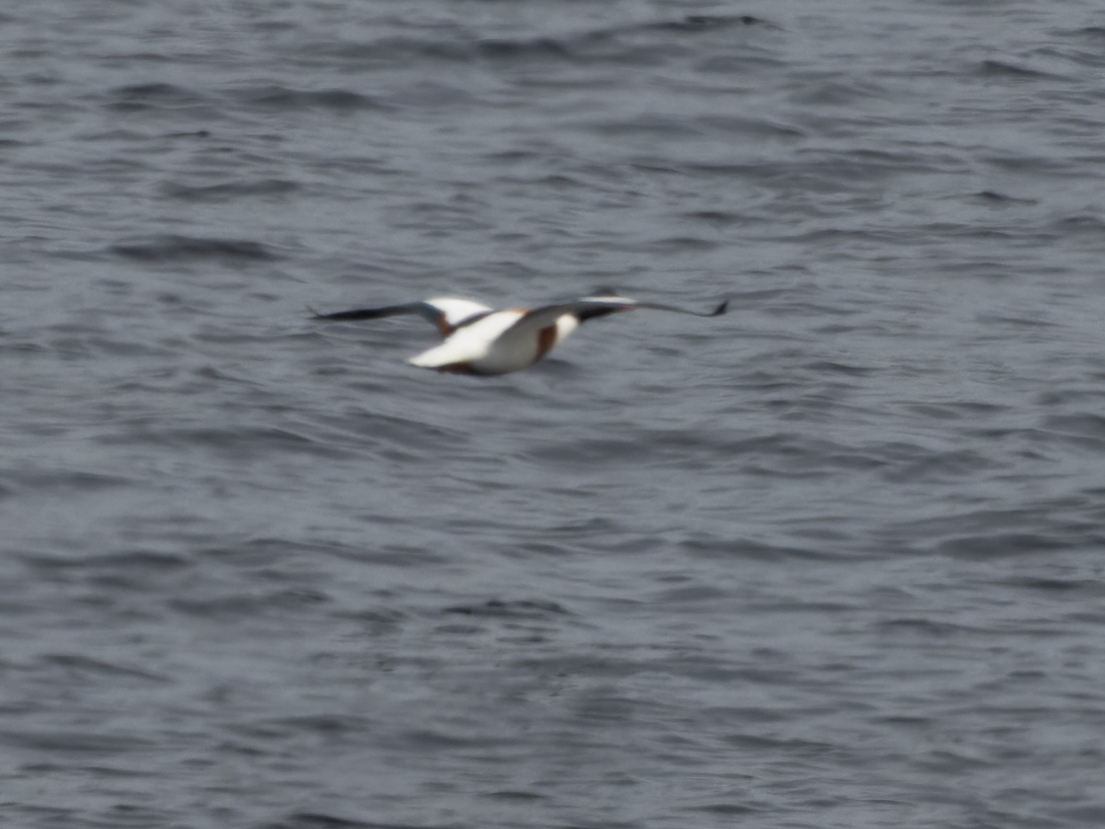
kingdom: Animalia
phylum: Chordata
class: Aves
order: Anseriformes
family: Anatidae
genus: Tadorna
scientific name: Tadorna tadorna
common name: Common shelduck
